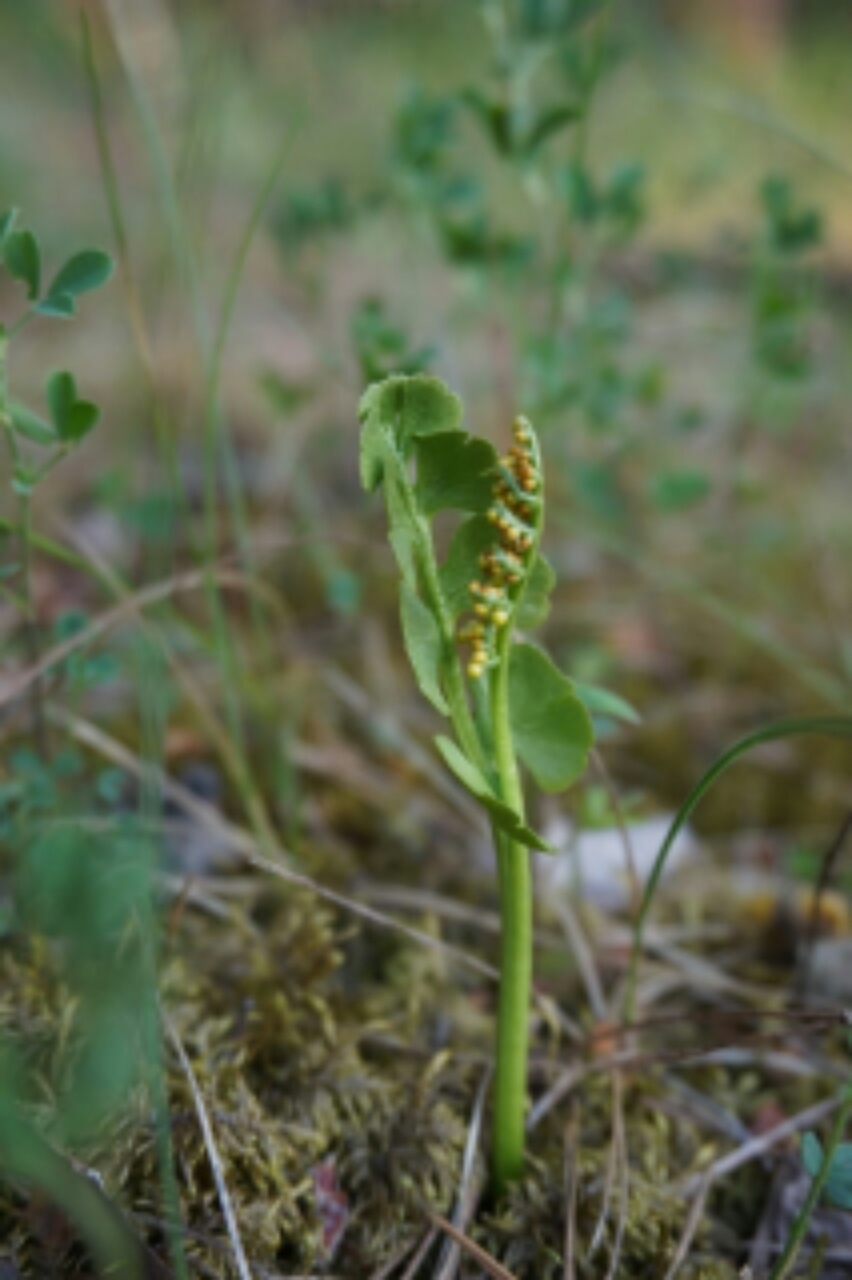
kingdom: Plantae
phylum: Tracheophyta
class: Polypodiopsida
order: Ophioglossales
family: Ophioglossaceae
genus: Botrychium
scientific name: Botrychium lunaria
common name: Moonwort
